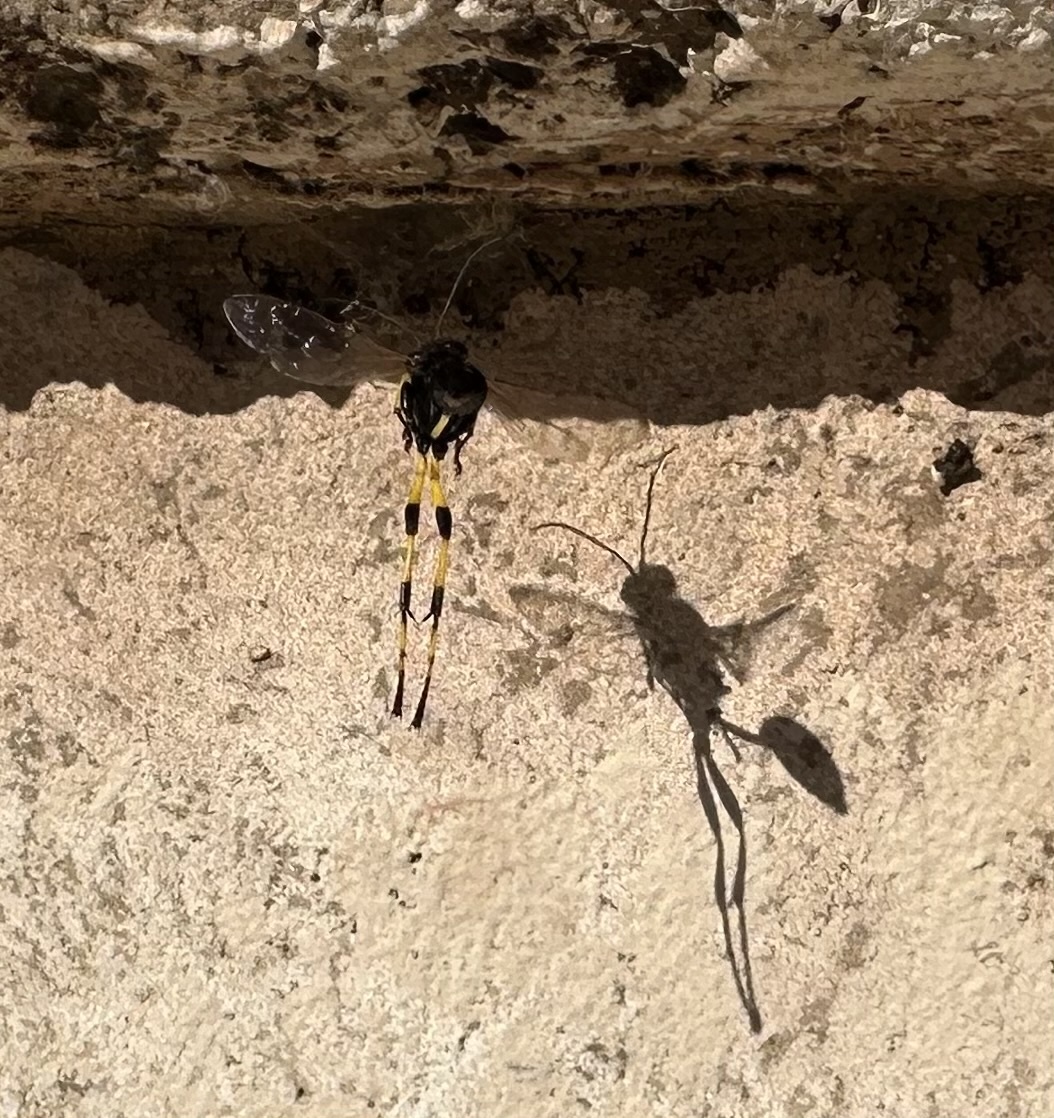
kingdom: Animalia
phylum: Arthropoda
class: Insecta
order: Hymenoptera
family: Sphecidae
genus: Sceliphron
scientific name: Sceliphron spirifex
